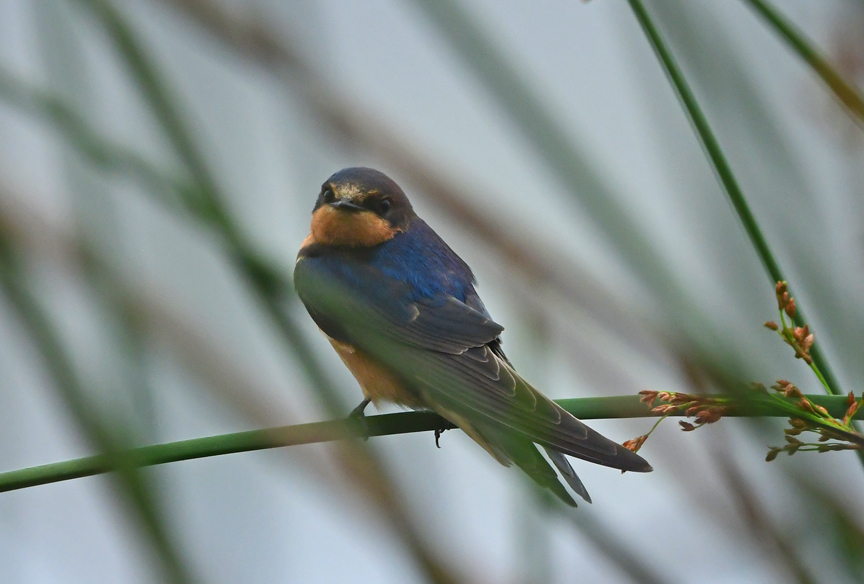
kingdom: Animalia
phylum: Chordata
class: Aves
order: Passeriformes
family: Hirundinidae
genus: Hirundo
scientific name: Hirundo rustica
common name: Barn swallow
